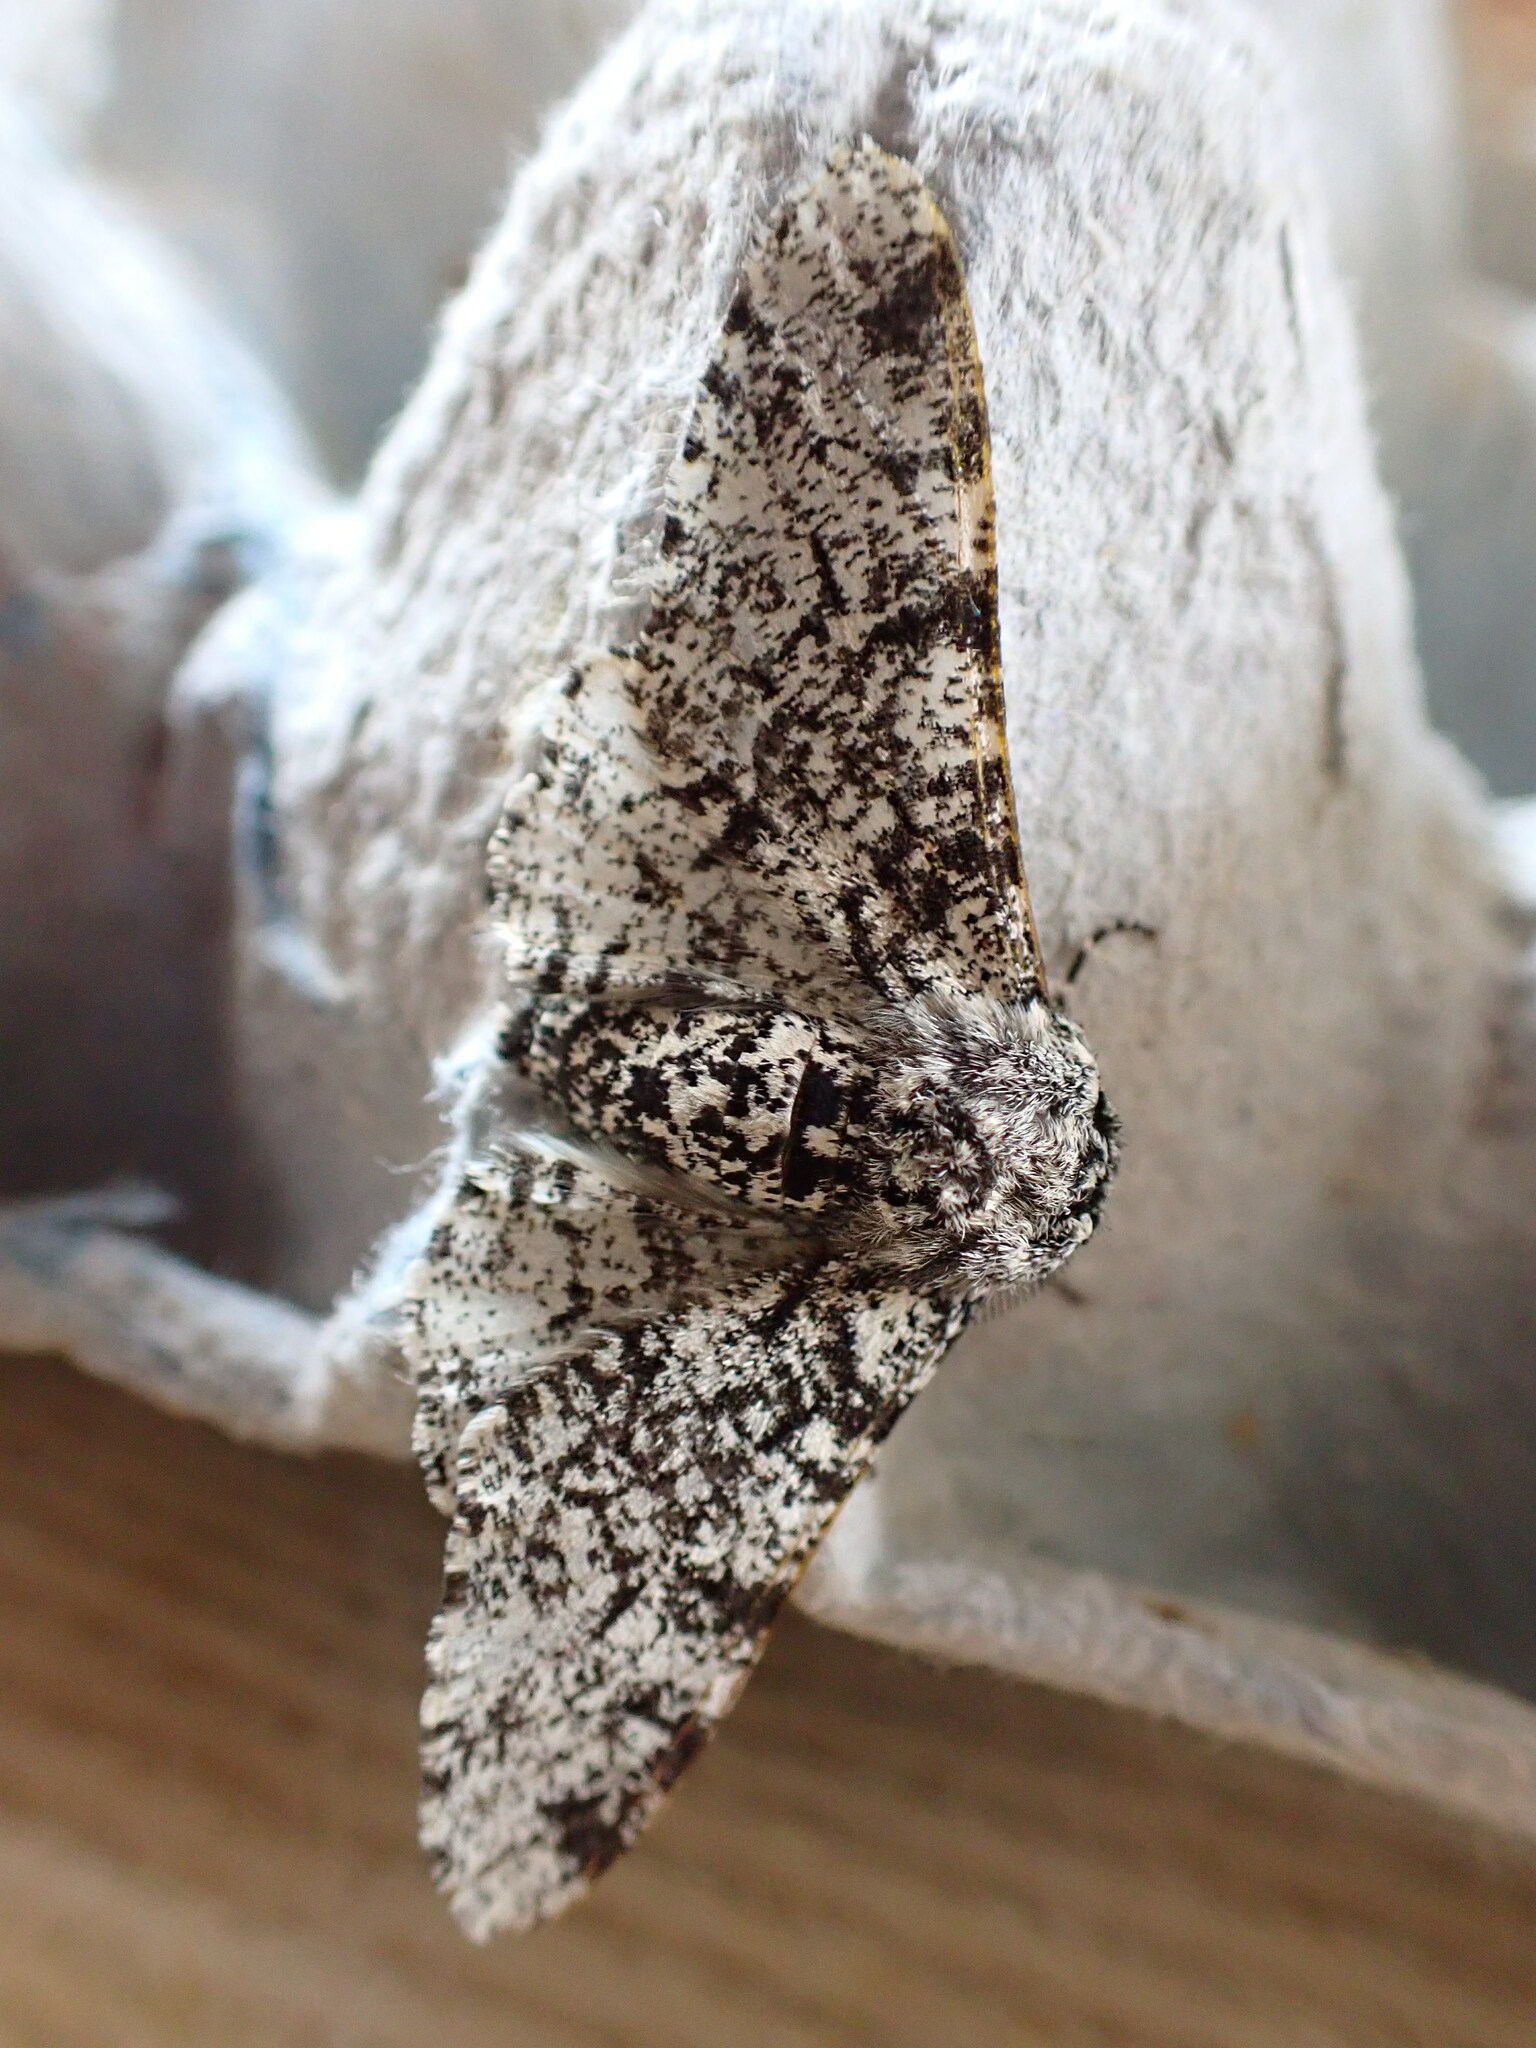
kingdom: Animalia
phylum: Arthropoda
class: Insecta
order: Lepidoptera
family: Geometridae
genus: Biston
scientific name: Biston betularia
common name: Peppered moth
